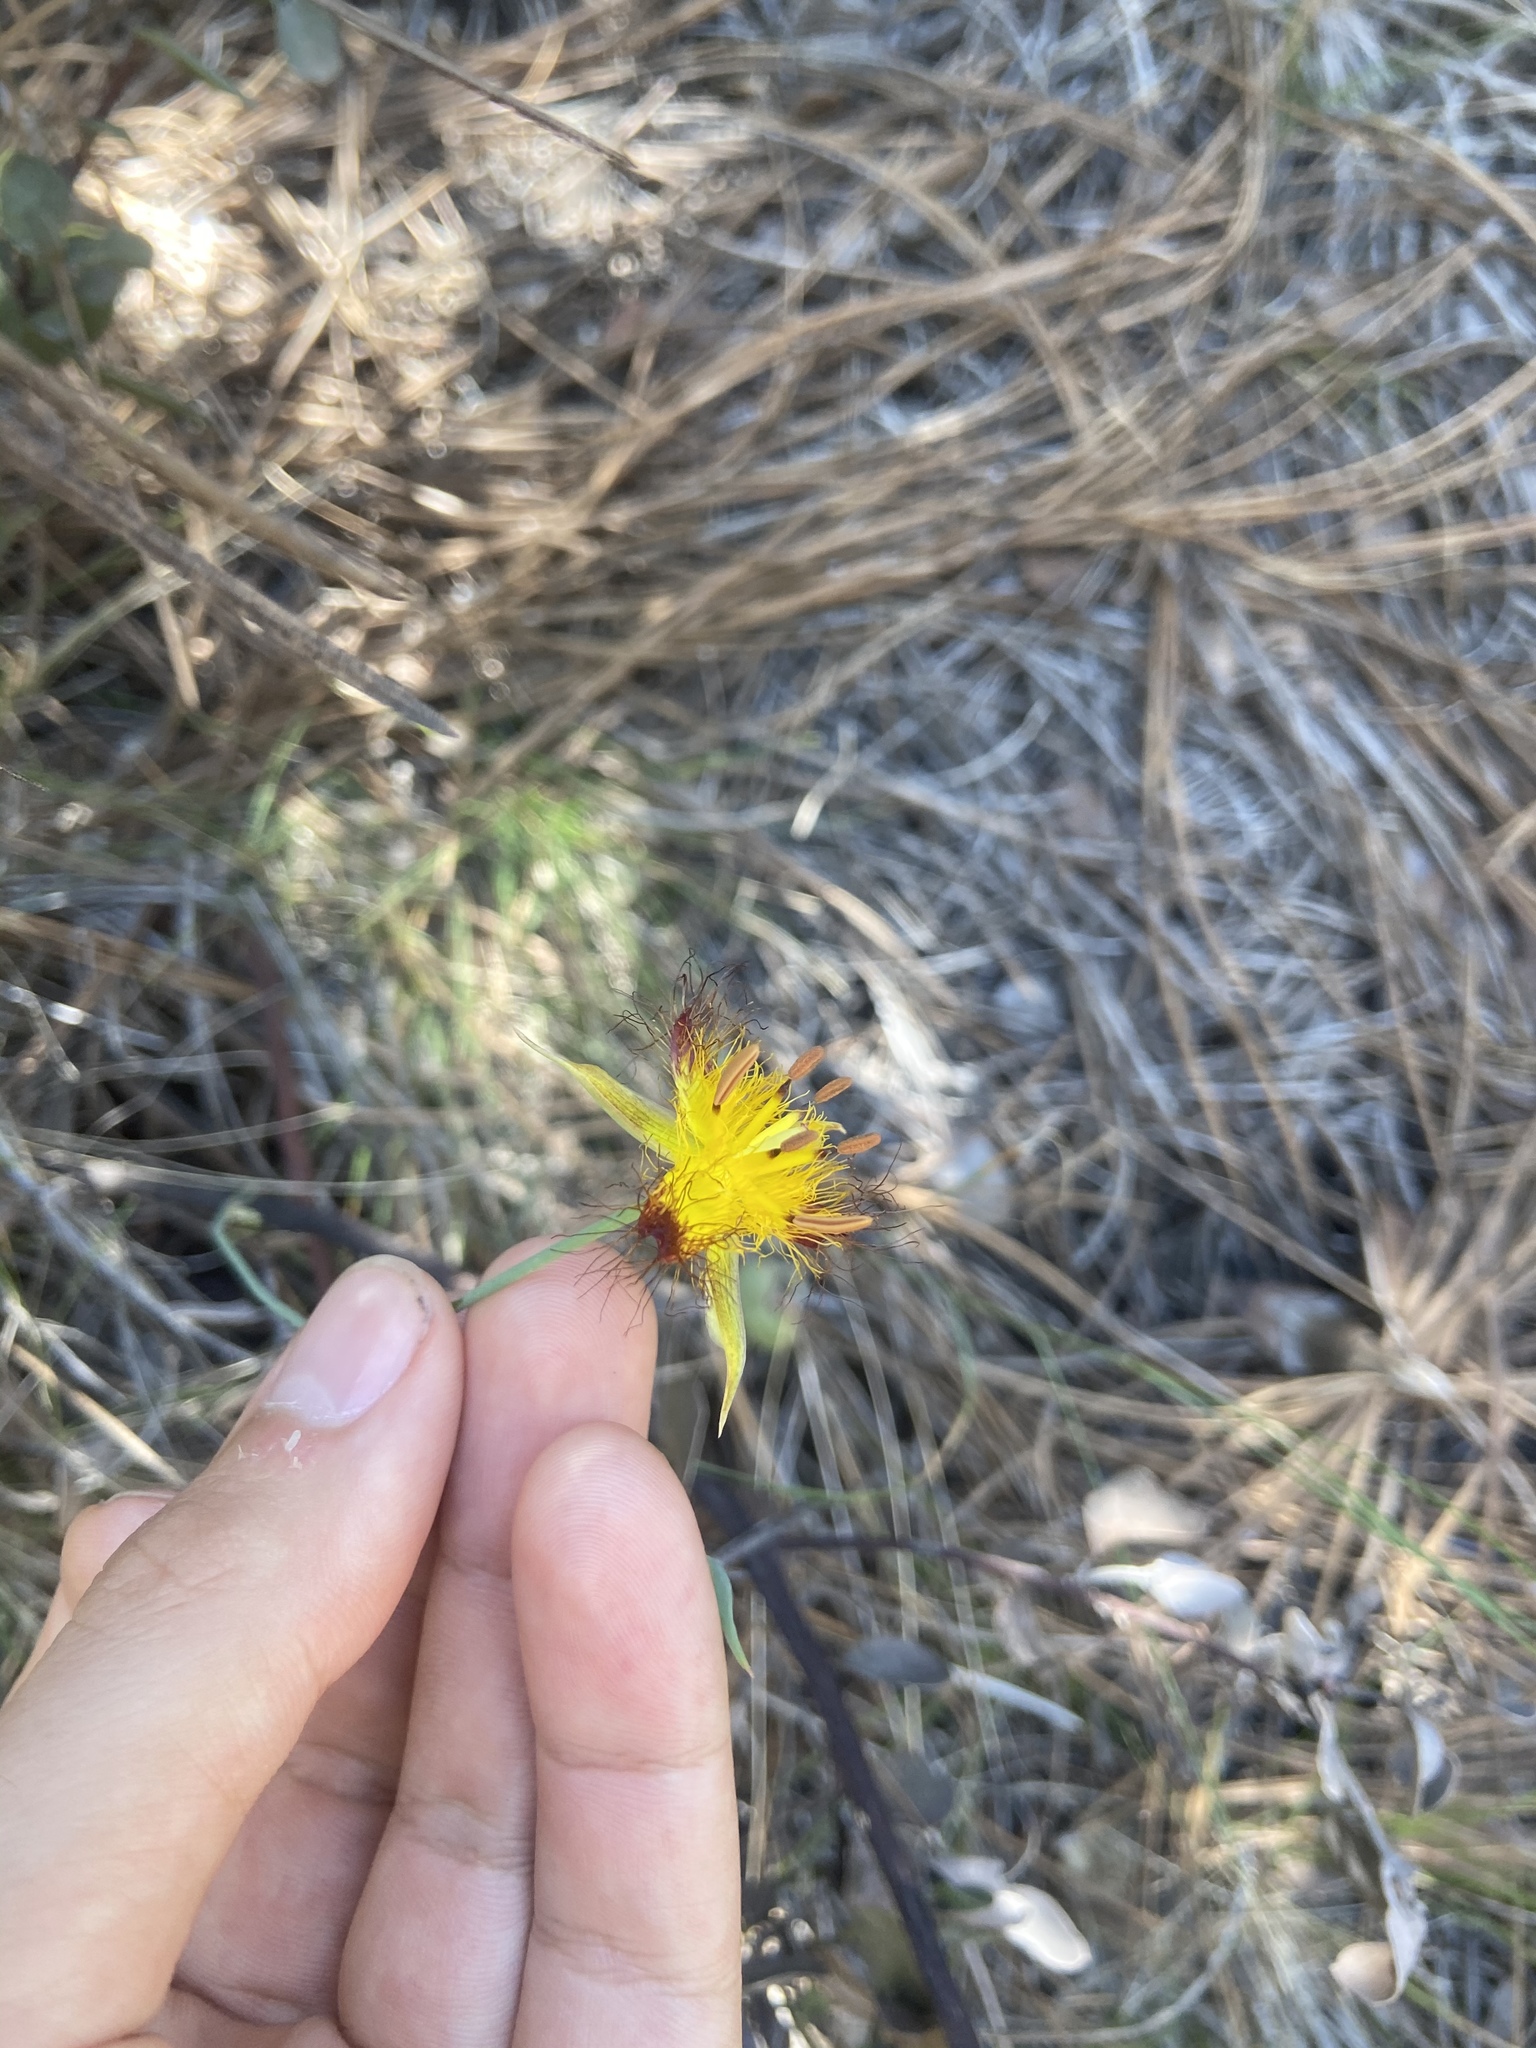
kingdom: Plantae
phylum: Tracheophyta
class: Liliopsida
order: Liliales
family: Liliaceae
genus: Calochortus
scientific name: Calochortus obispoensis
